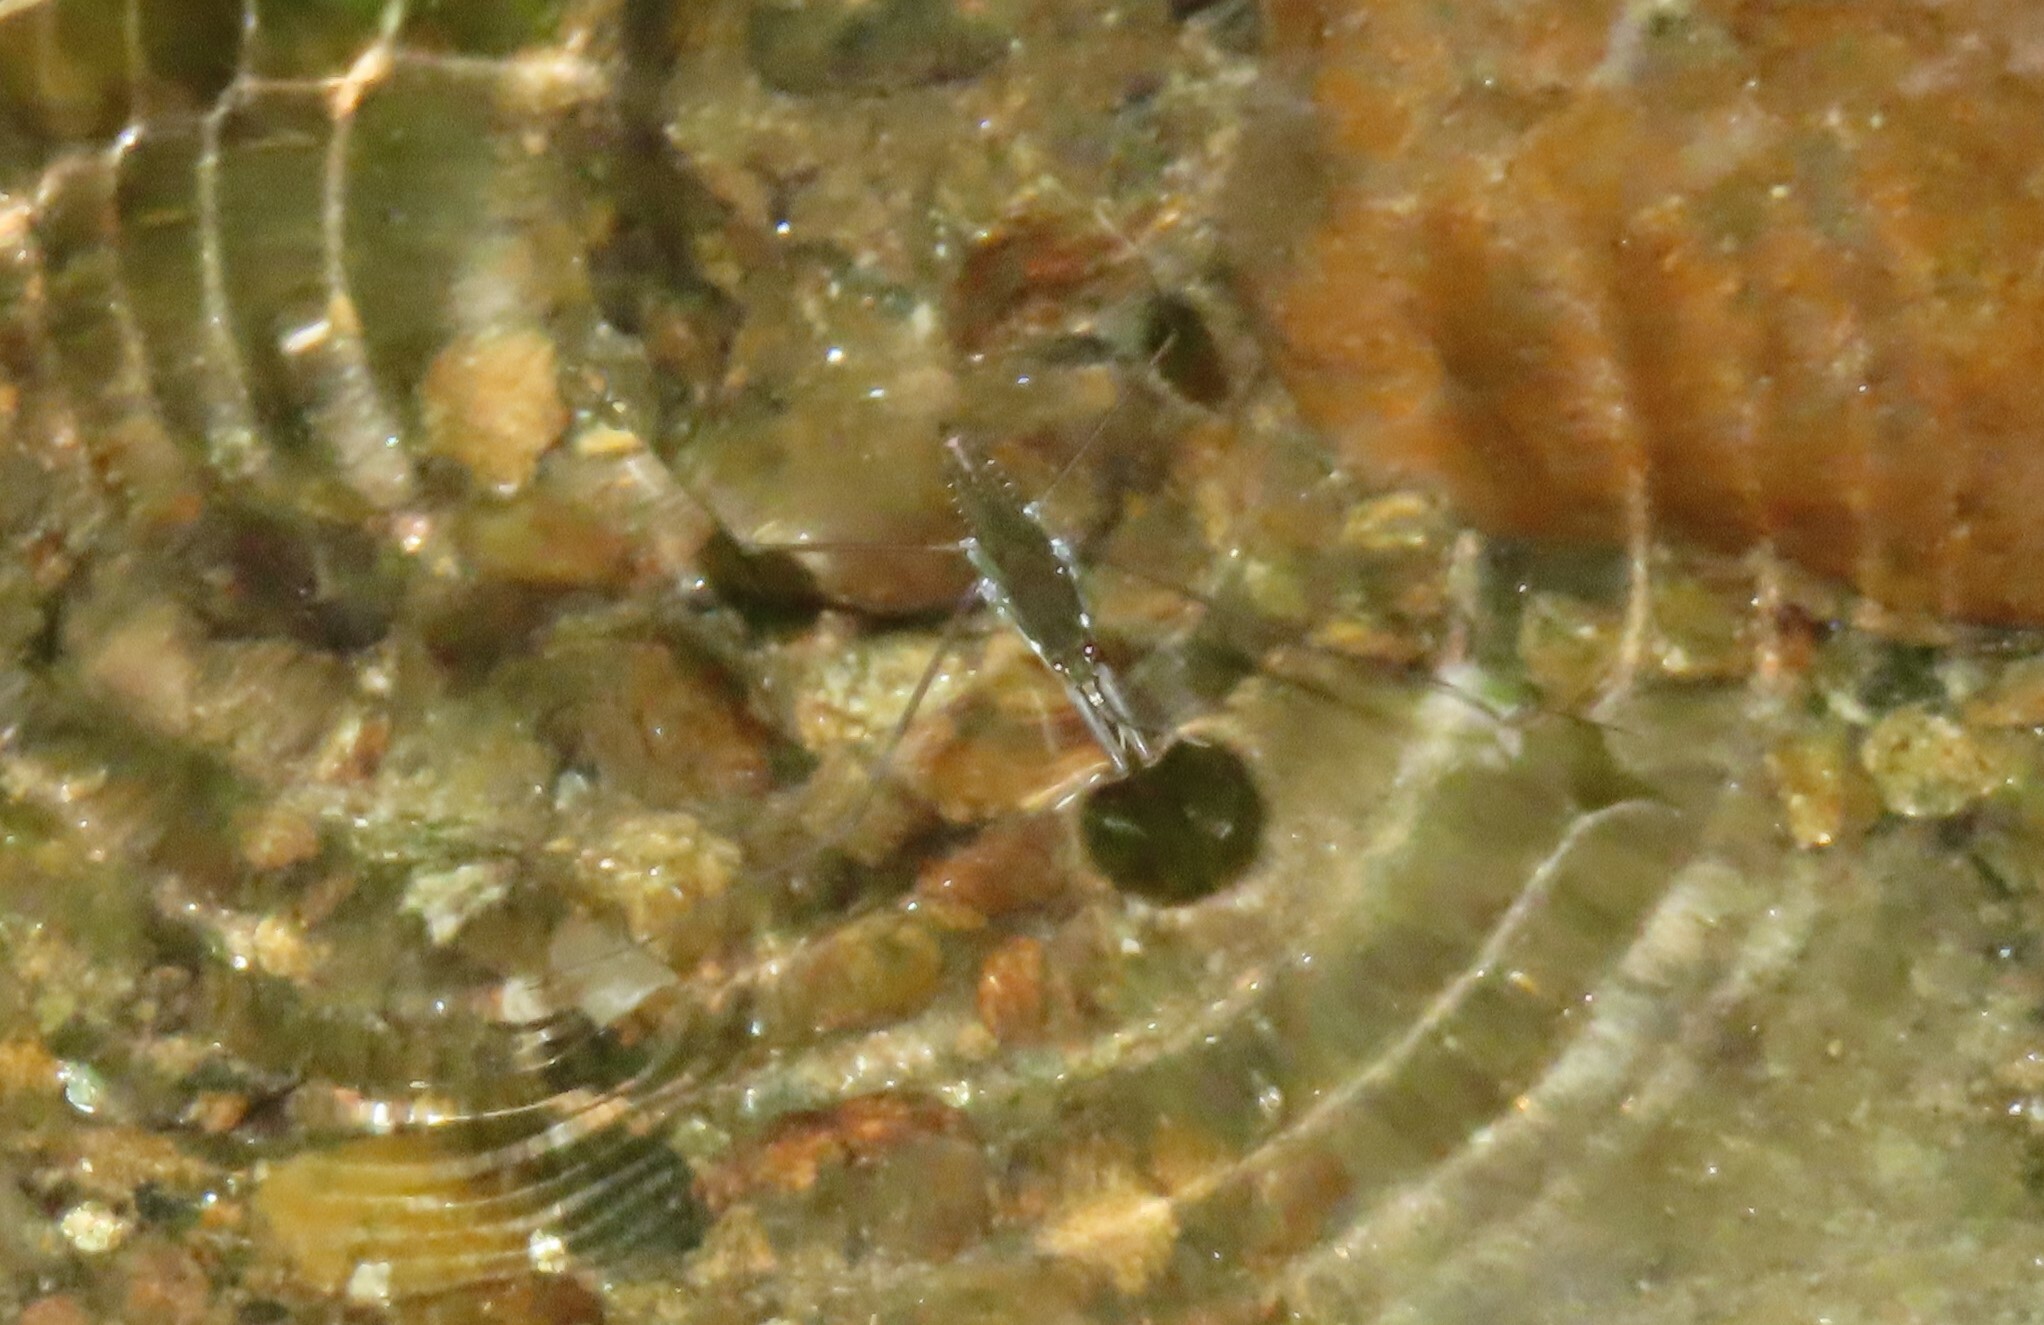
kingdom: Animalia
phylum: Arthropoda
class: Insecta
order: Hemiptera
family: Gerridae
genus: Aquarius
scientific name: Aquarius
